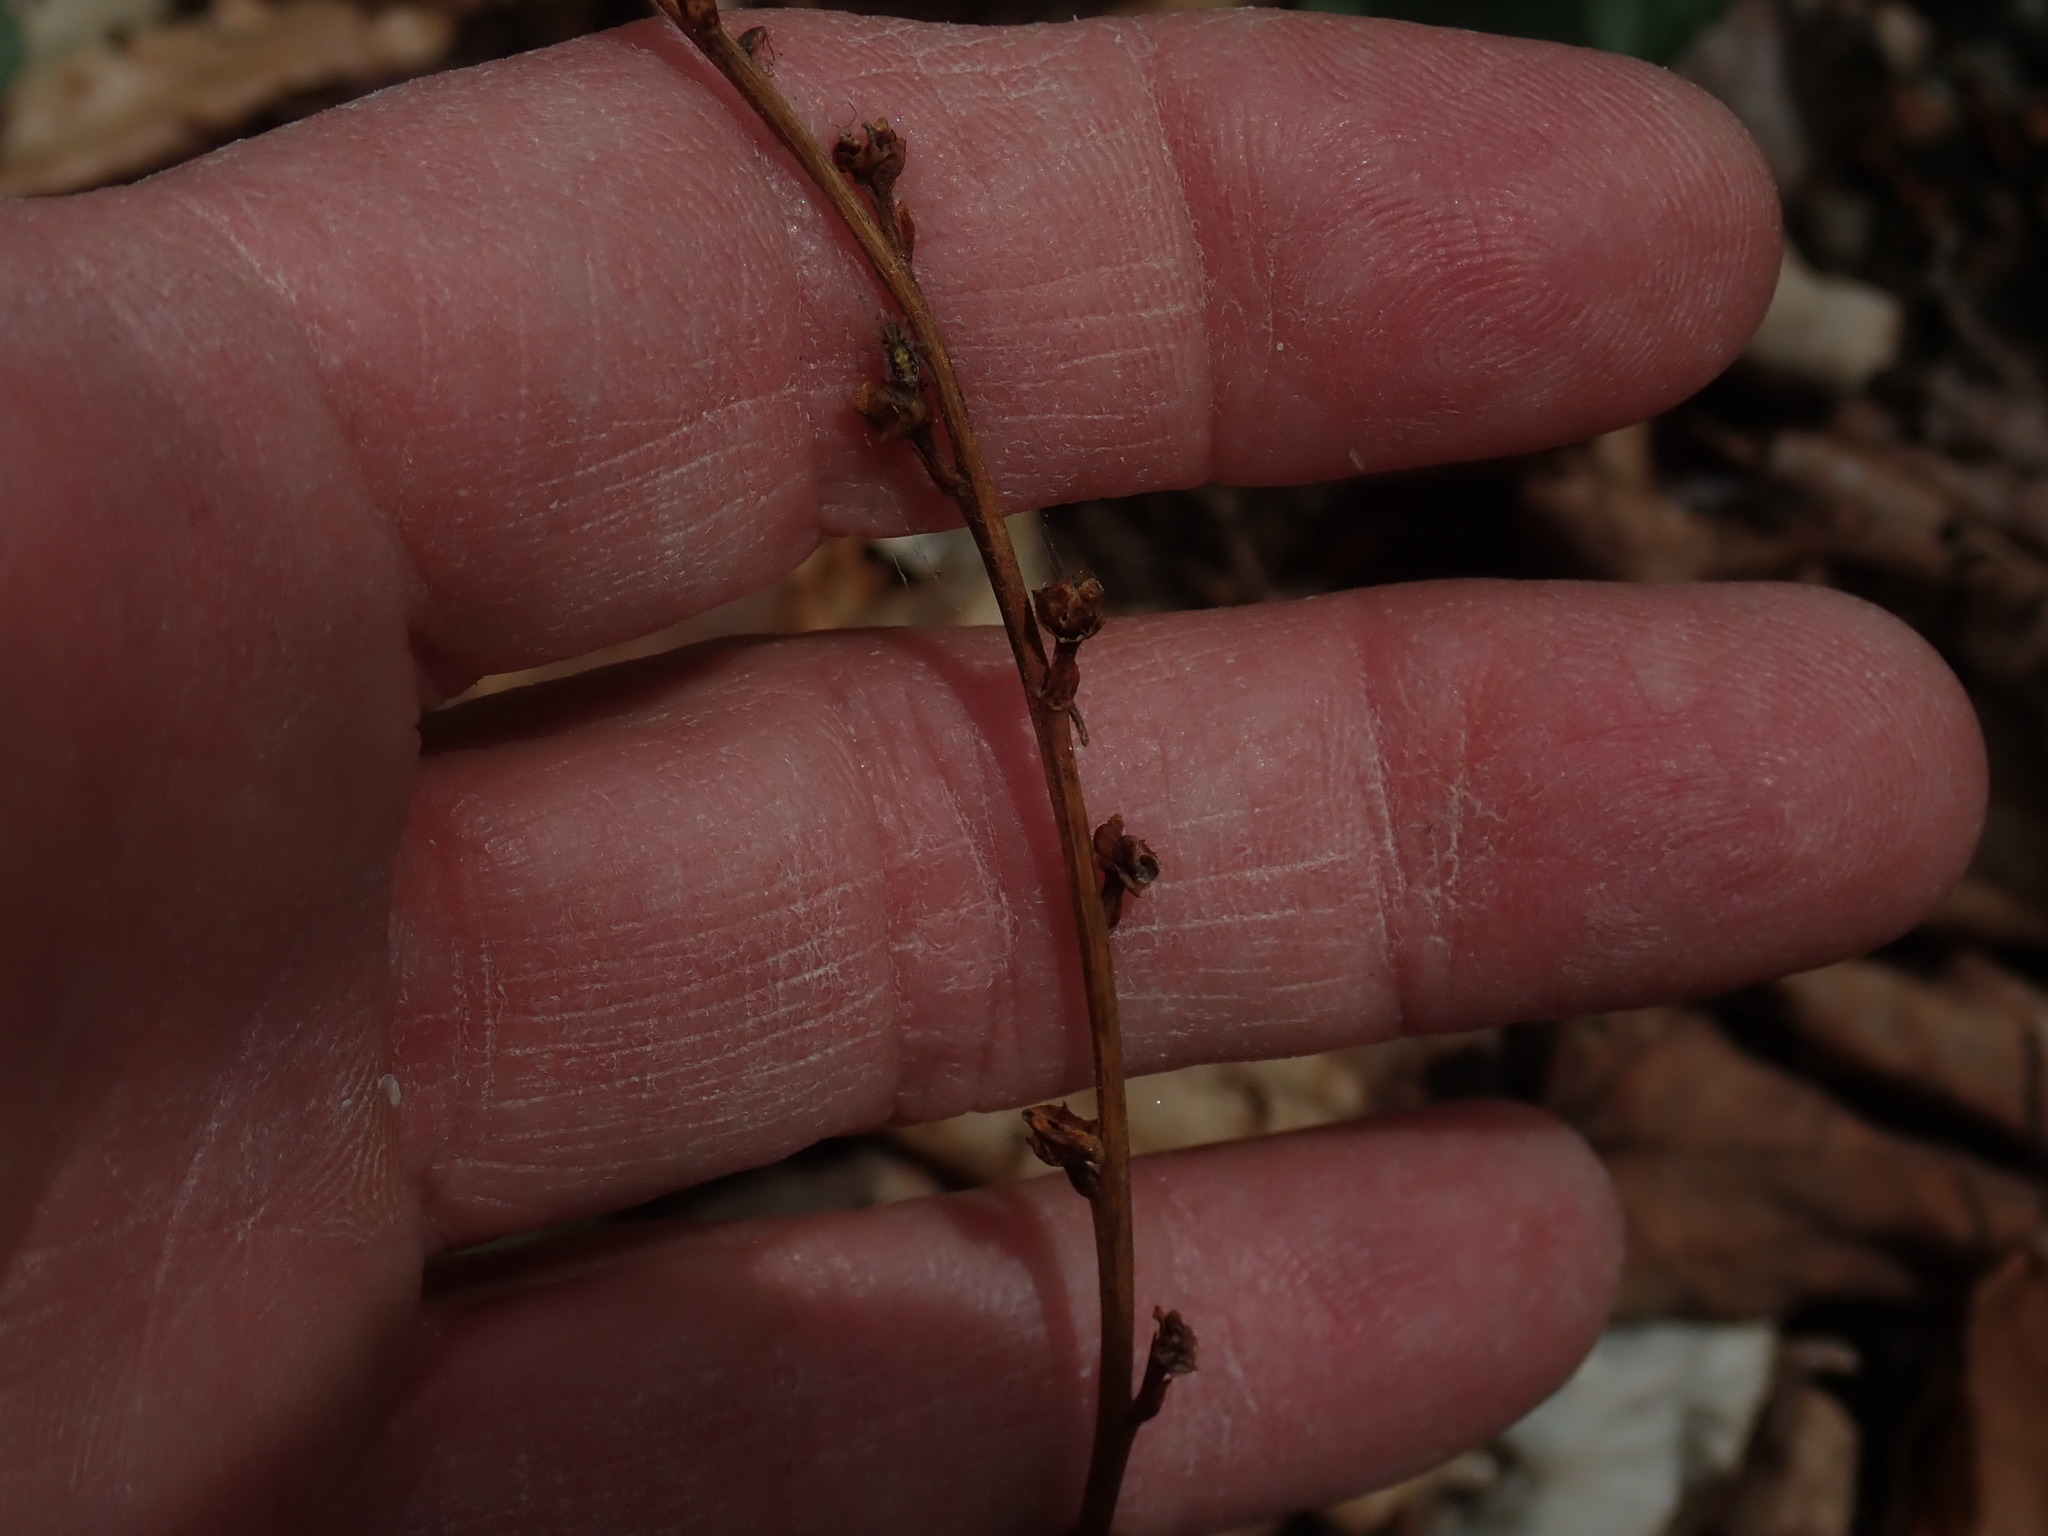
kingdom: Plantae
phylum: Tracheophyta
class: Magnoliopsida
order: Lamiales
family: Orobanchaceae
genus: Epifagus
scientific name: Epifagus virginiana
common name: Beechdrops
